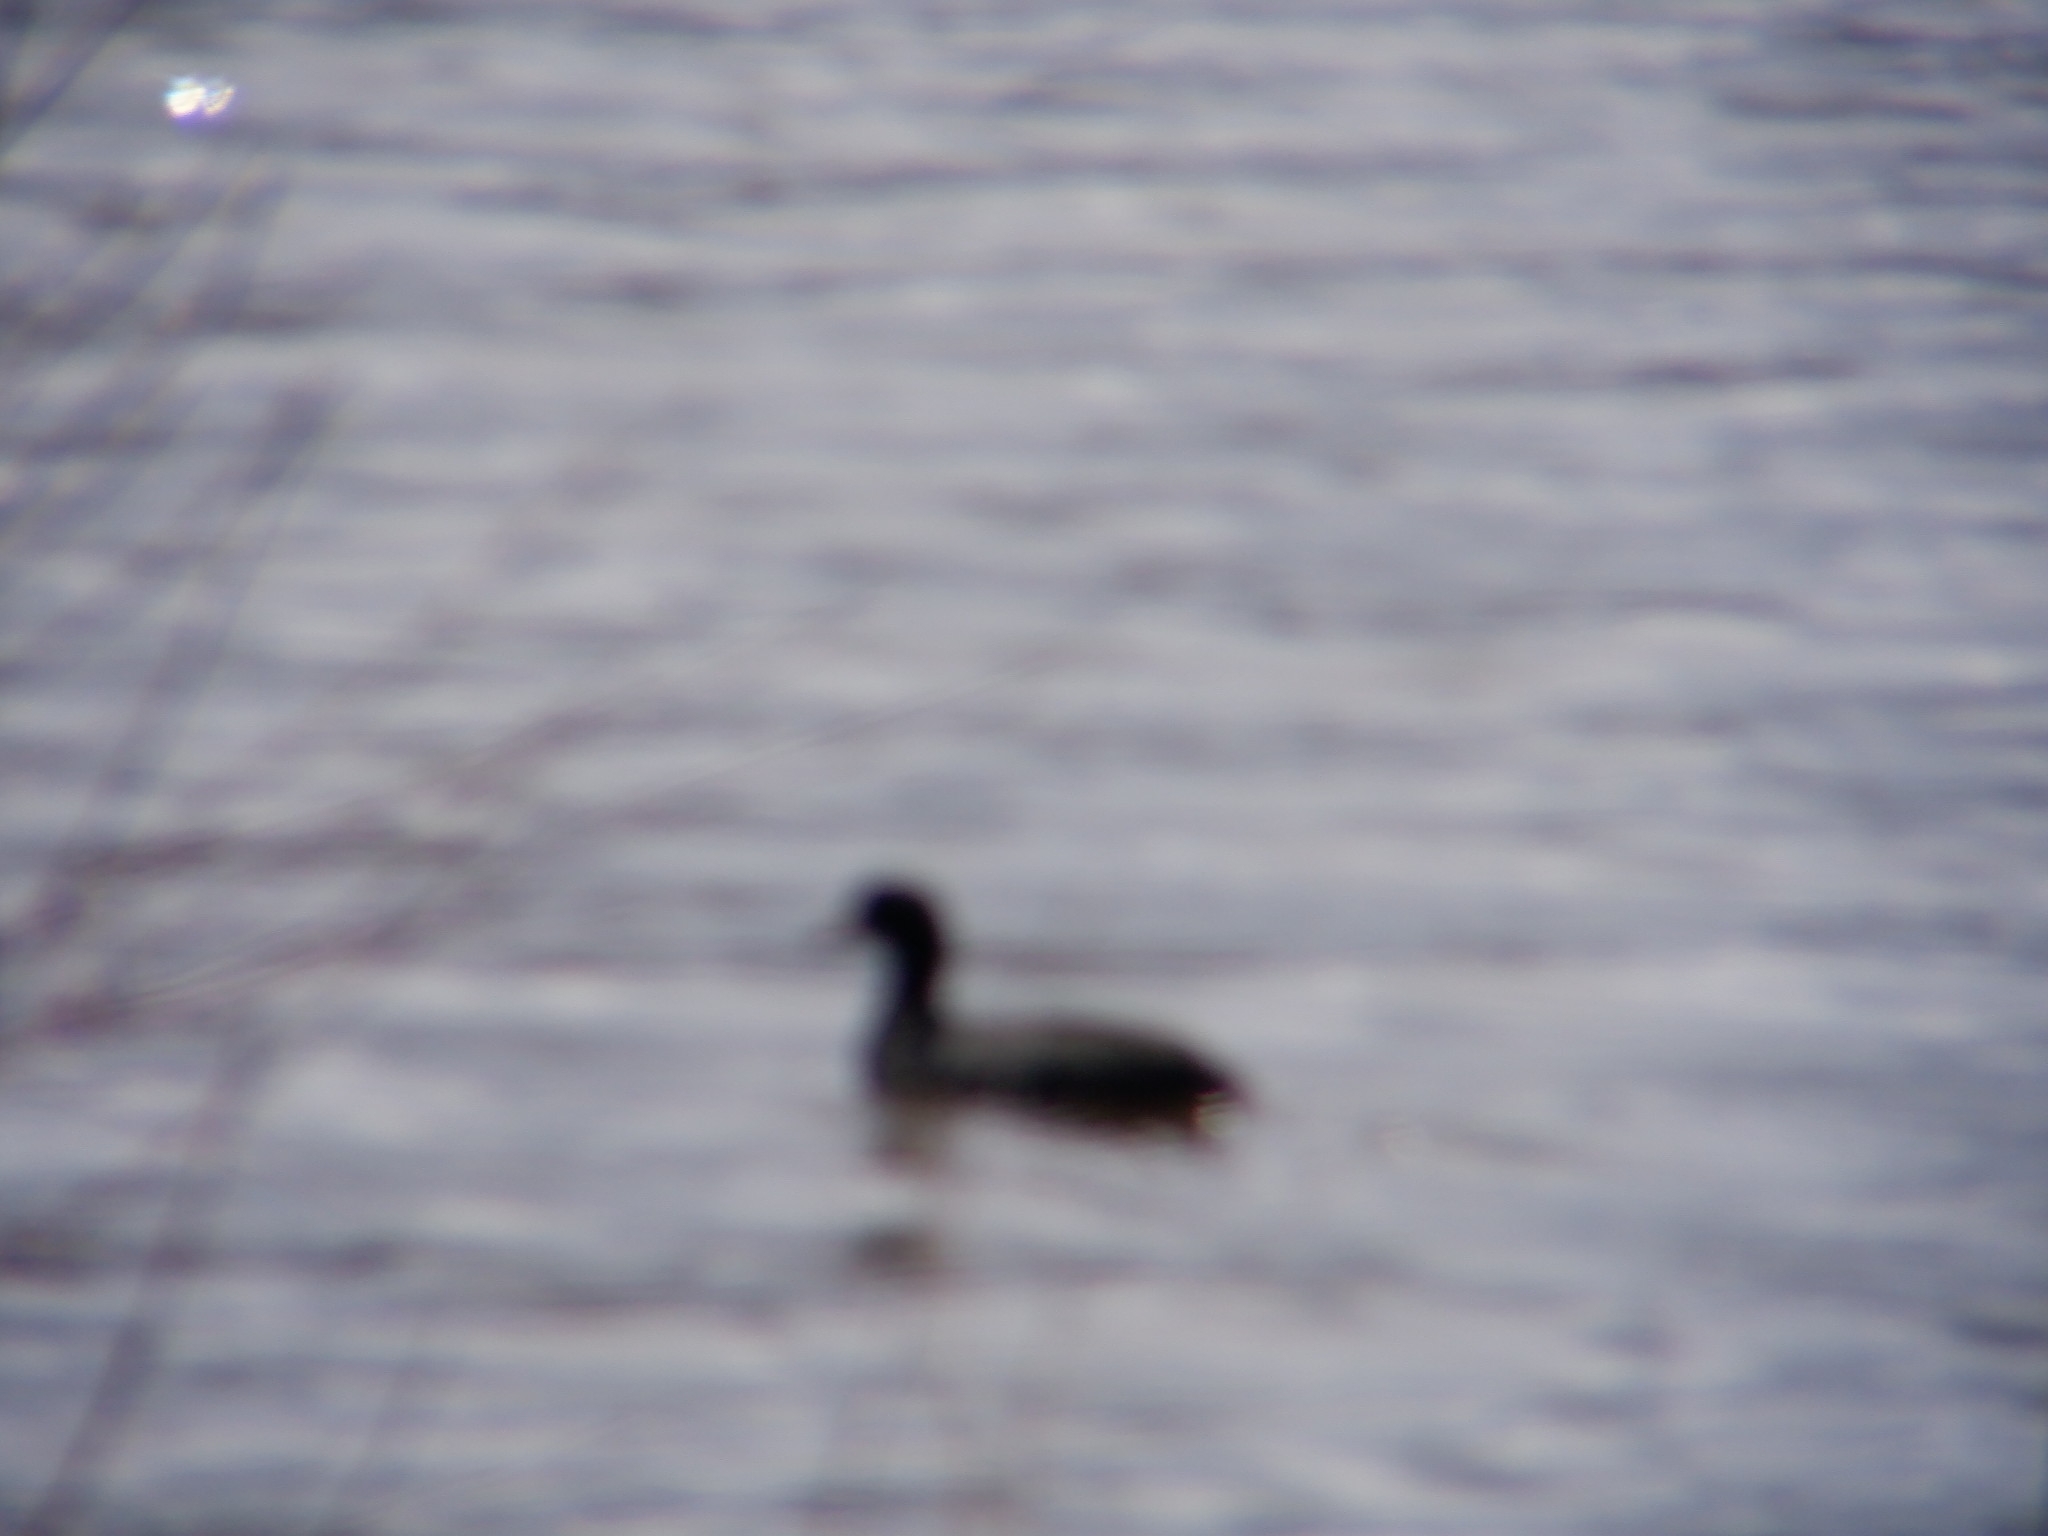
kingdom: Animalia
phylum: Chordata
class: Aves
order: Gruiformes
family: Rallidae
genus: Fulica
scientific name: Fulica americana
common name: American coot
